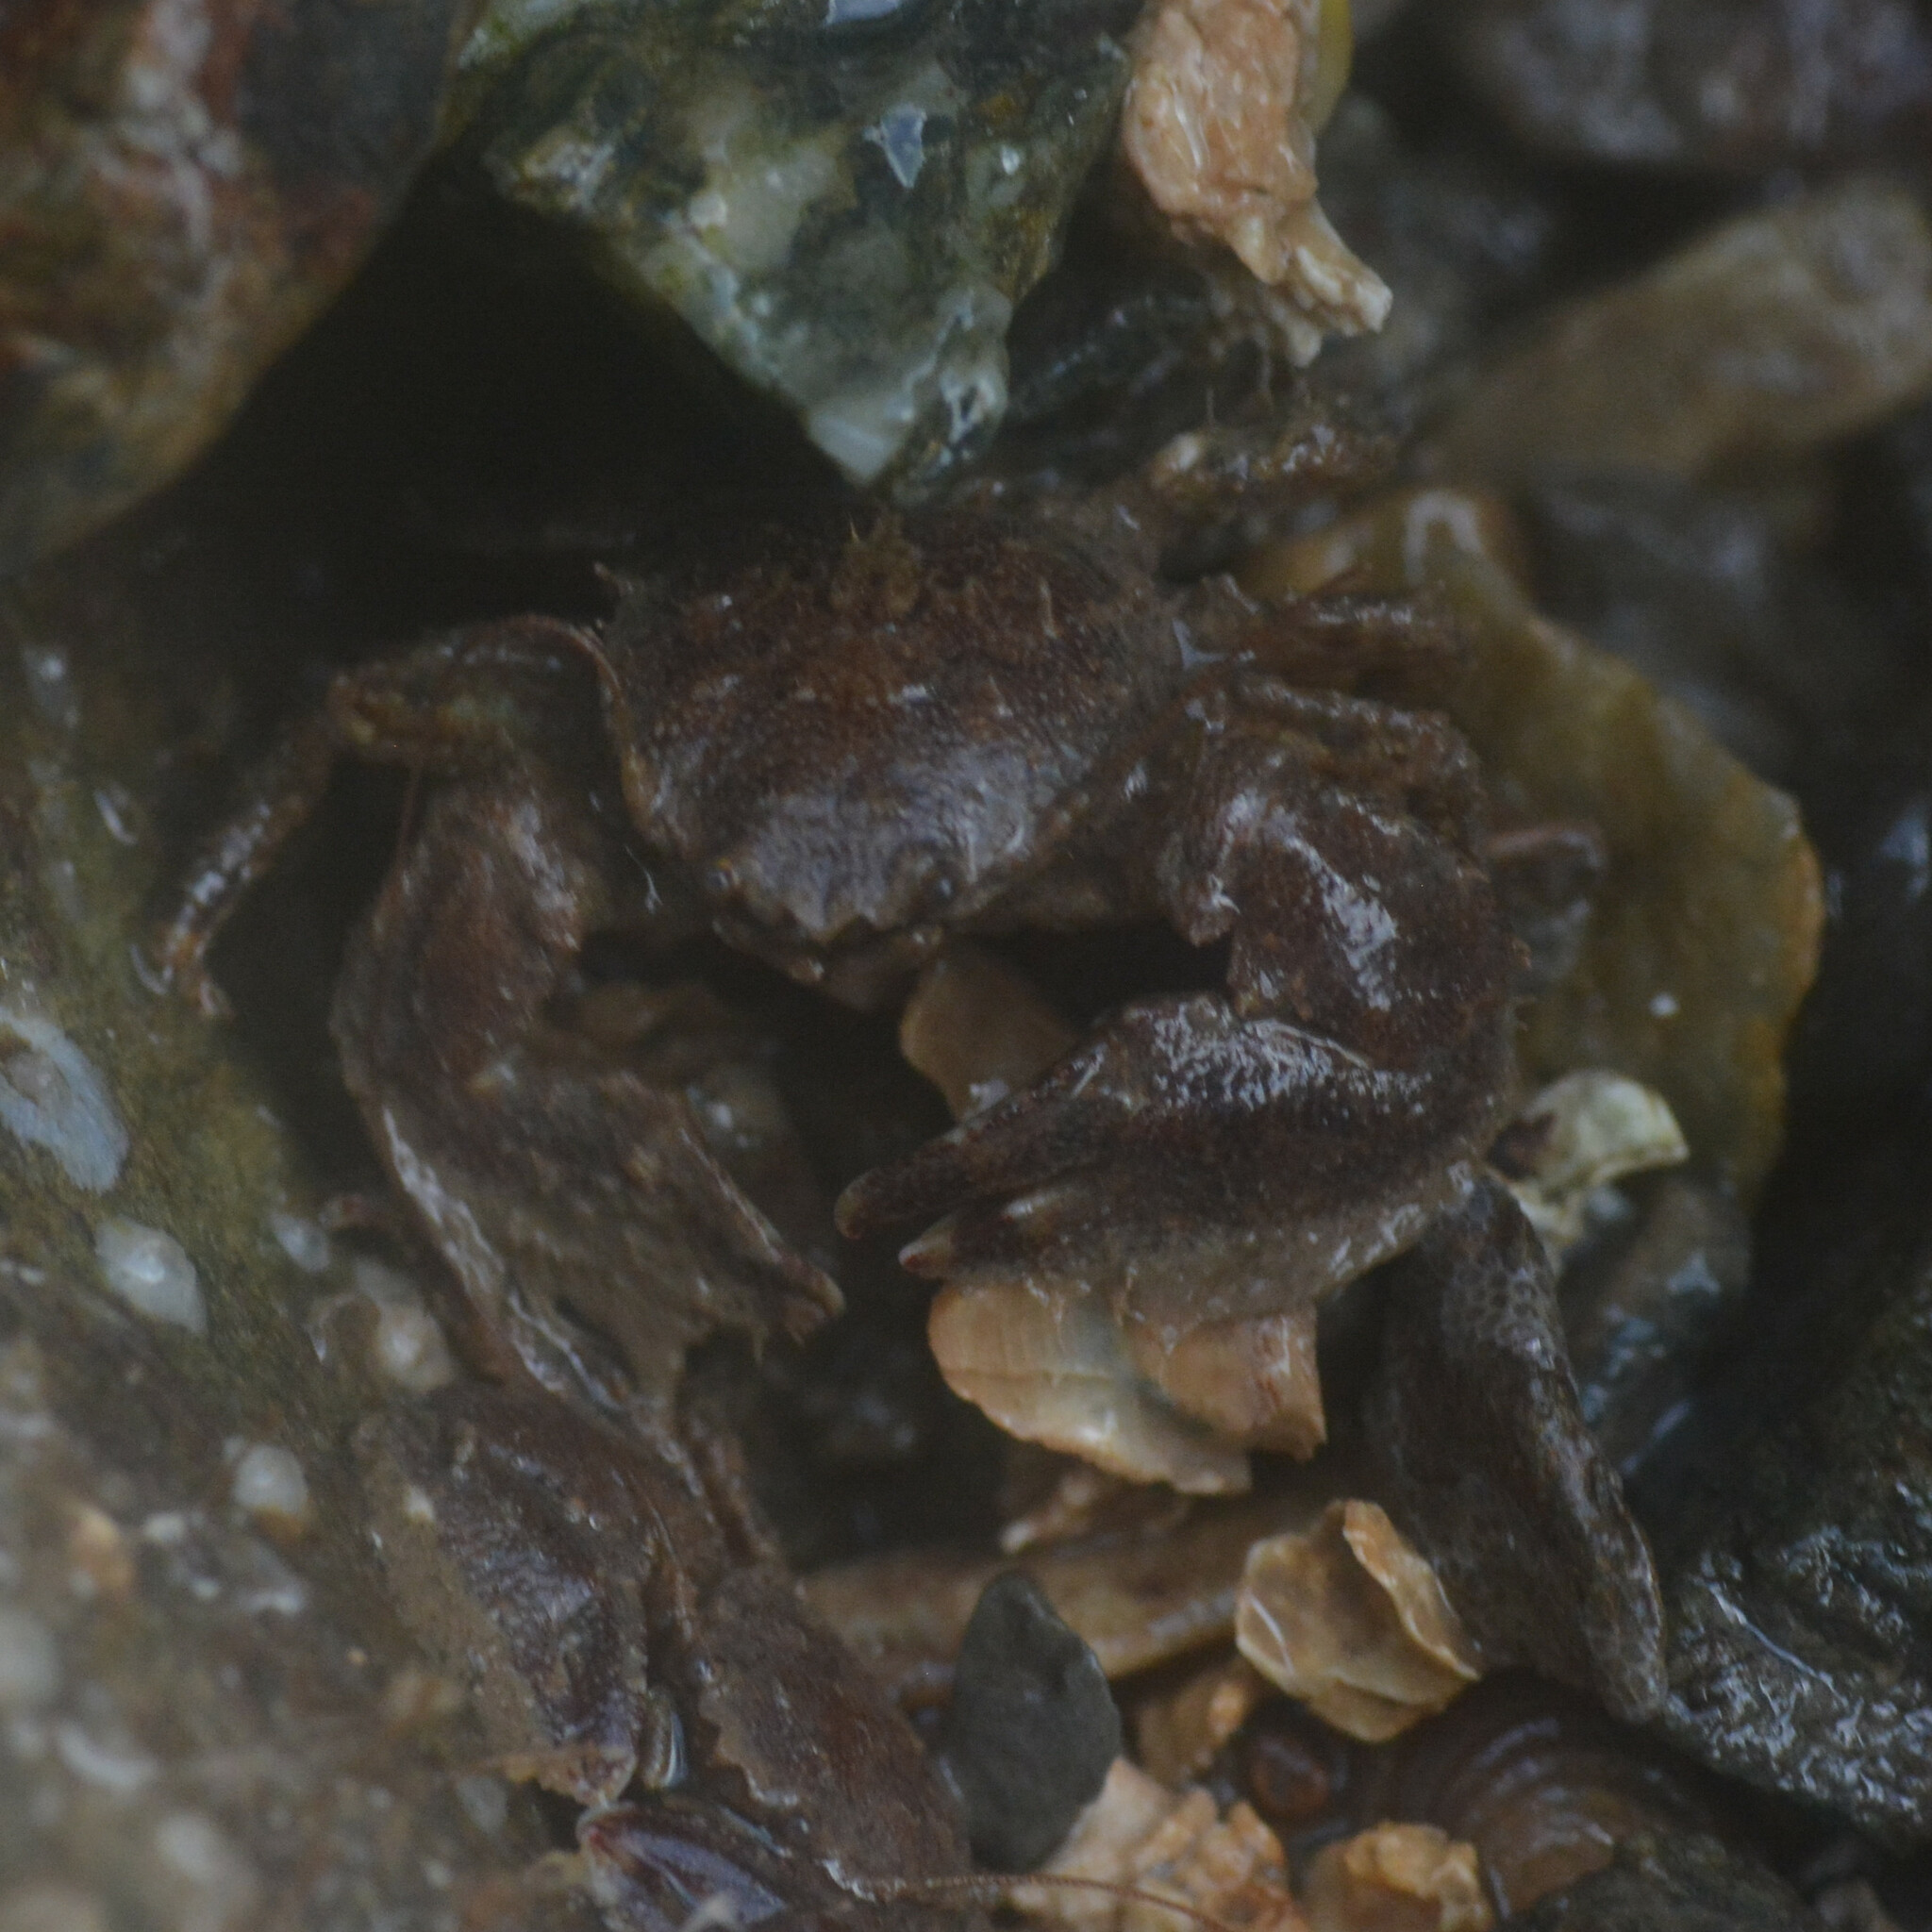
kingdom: Animalia
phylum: Arthropoda
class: Malacostraca
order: Decapoda
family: Porcellanidae
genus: Porcellana
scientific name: Porcellana platycheles
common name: Porcelain crab
